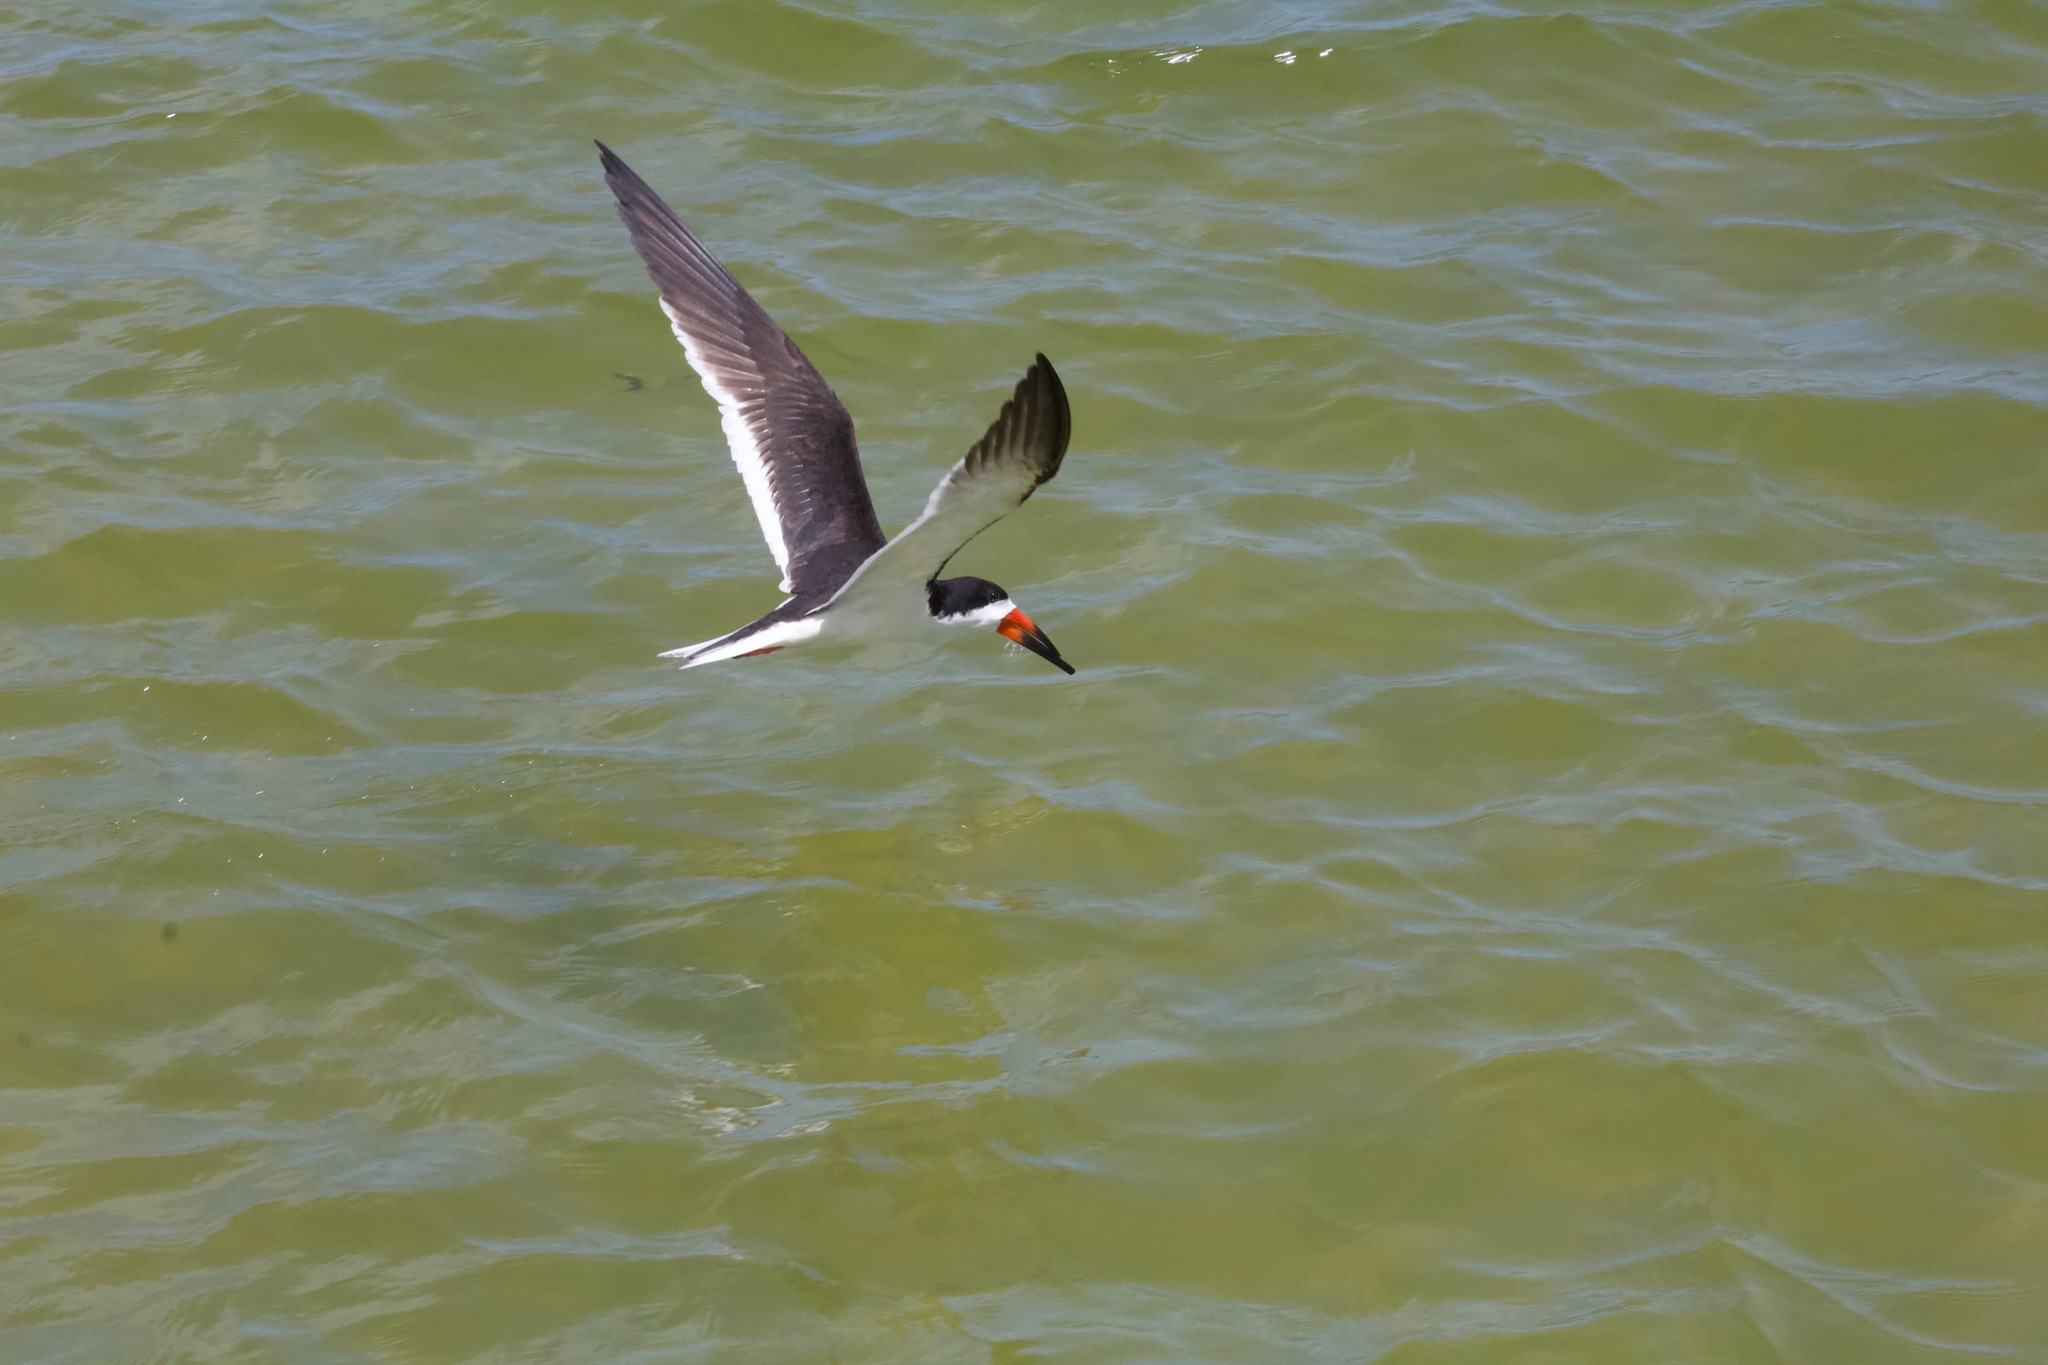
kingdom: Animalia
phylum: Chordata
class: Aves
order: Charadriiformes
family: Laridae
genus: Rynchops
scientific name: Rynchops niger
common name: Black skimmer
